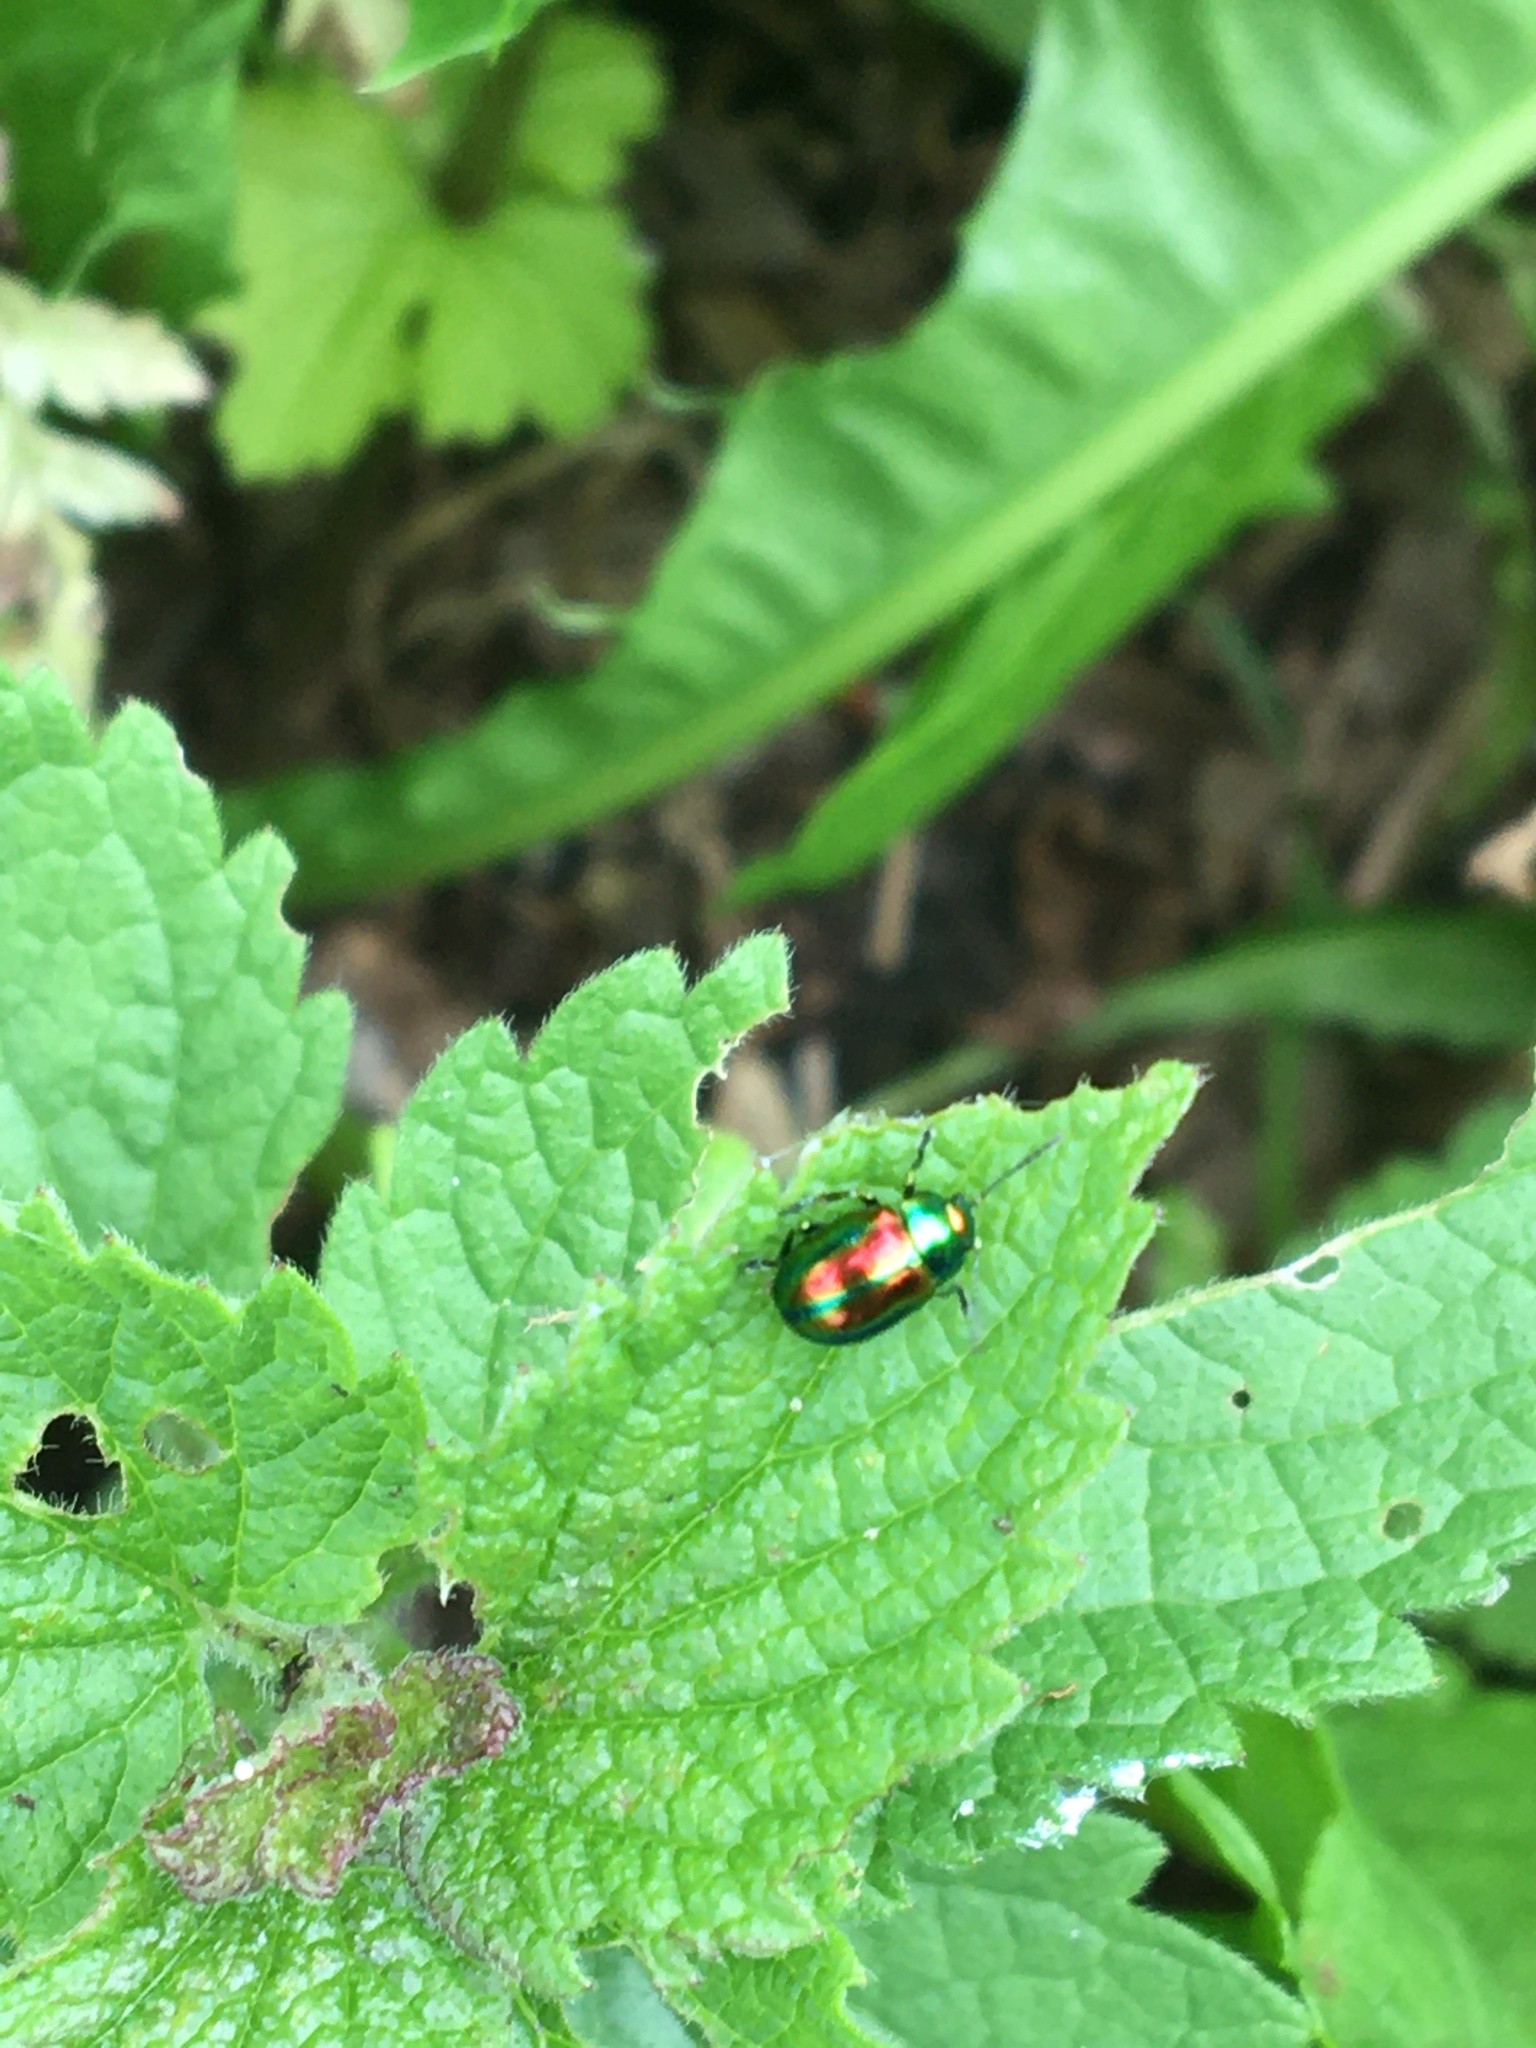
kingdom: Animalia
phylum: Arthropoda
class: Insecta
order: Coleoptera
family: Chrysomelidae
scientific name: Chrysomelidae
